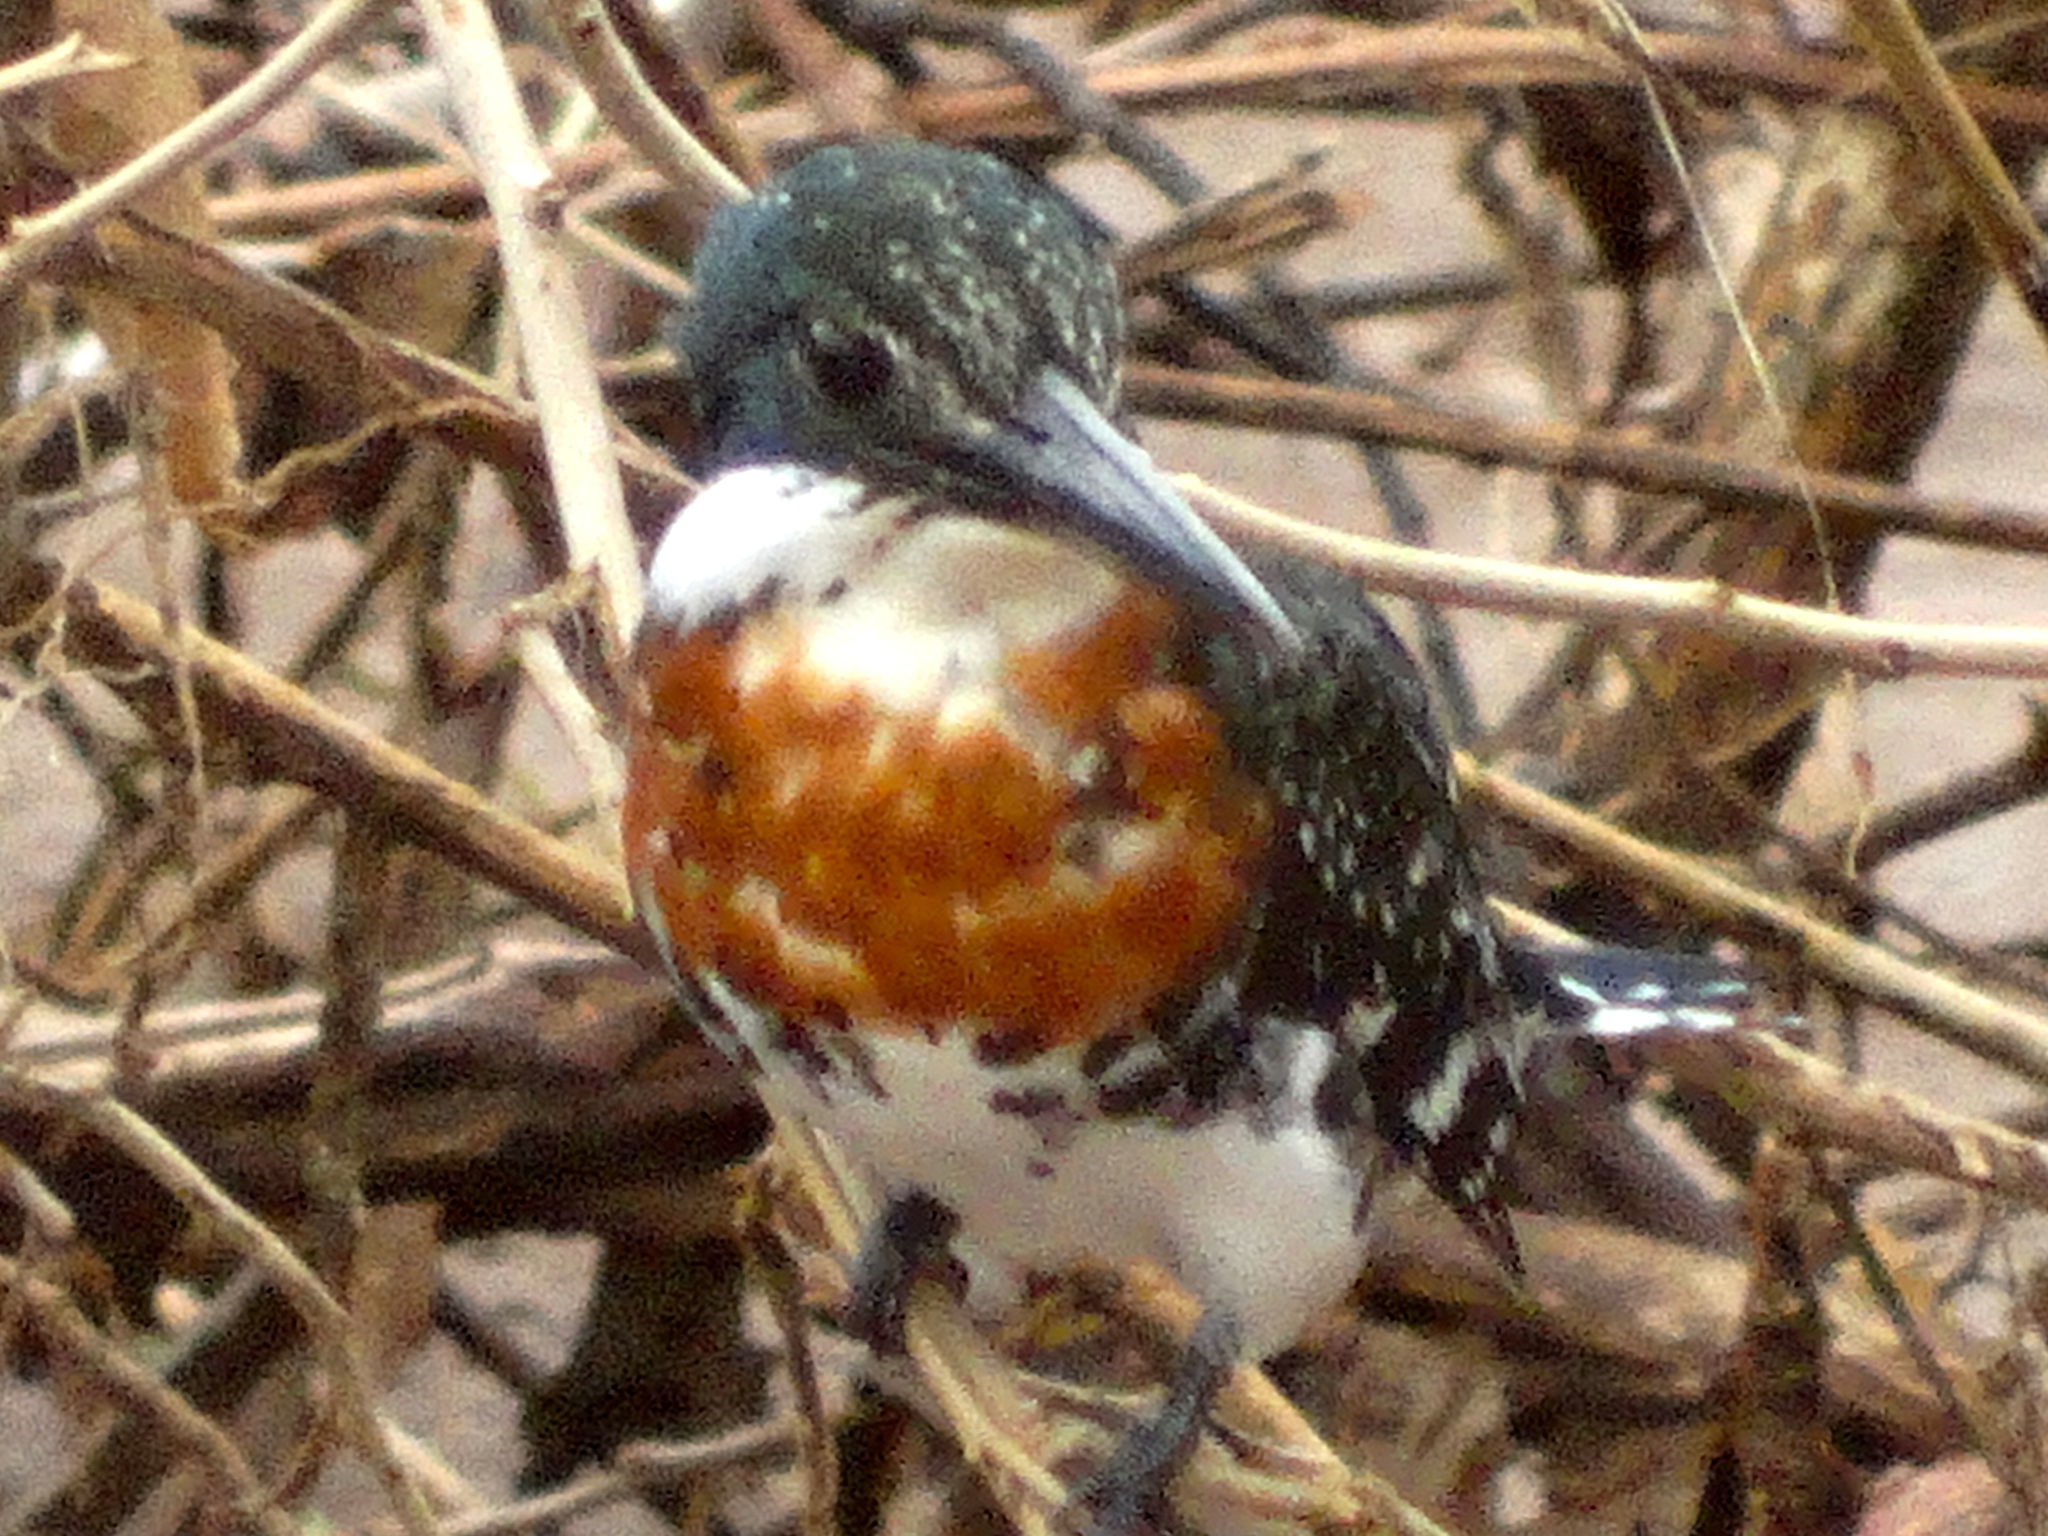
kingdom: Animalia
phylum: Chordata
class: Aves
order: Coraciiformes
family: Alcedinidae
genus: Chloroceryle
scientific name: Chloroceryle americana
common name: Green kingfisher
